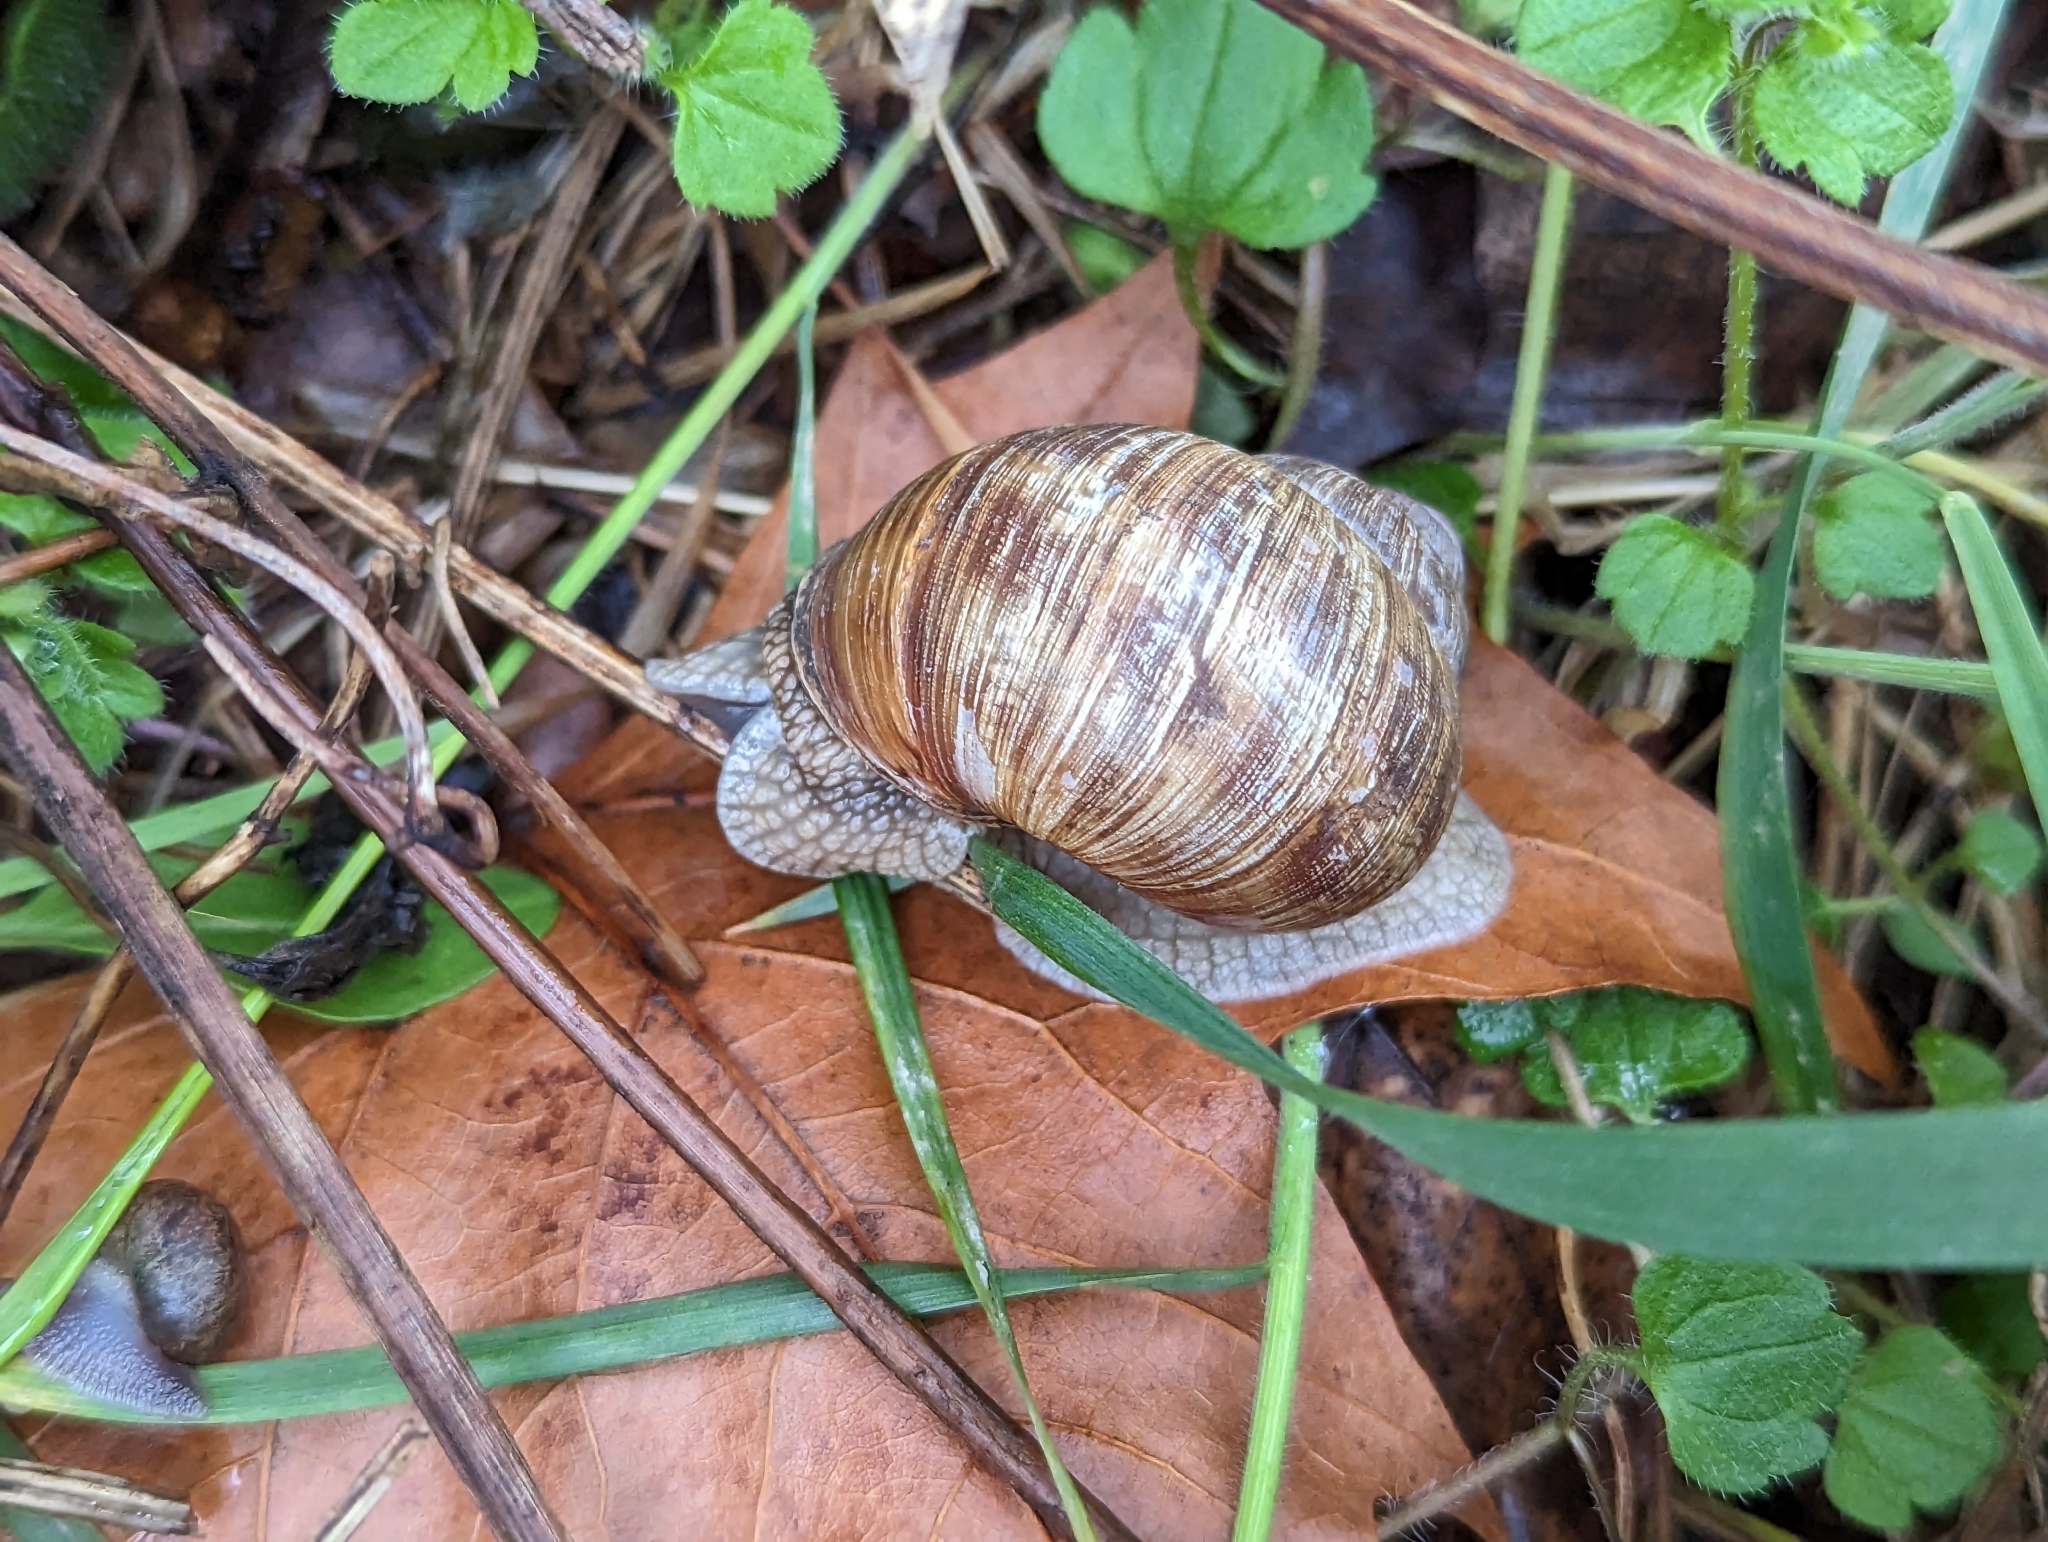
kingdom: Animalia
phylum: Mollusca
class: Gastropoda
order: Stylommatophora
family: Helicidae
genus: Helix
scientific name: Helix pomatia
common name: Roman snail
